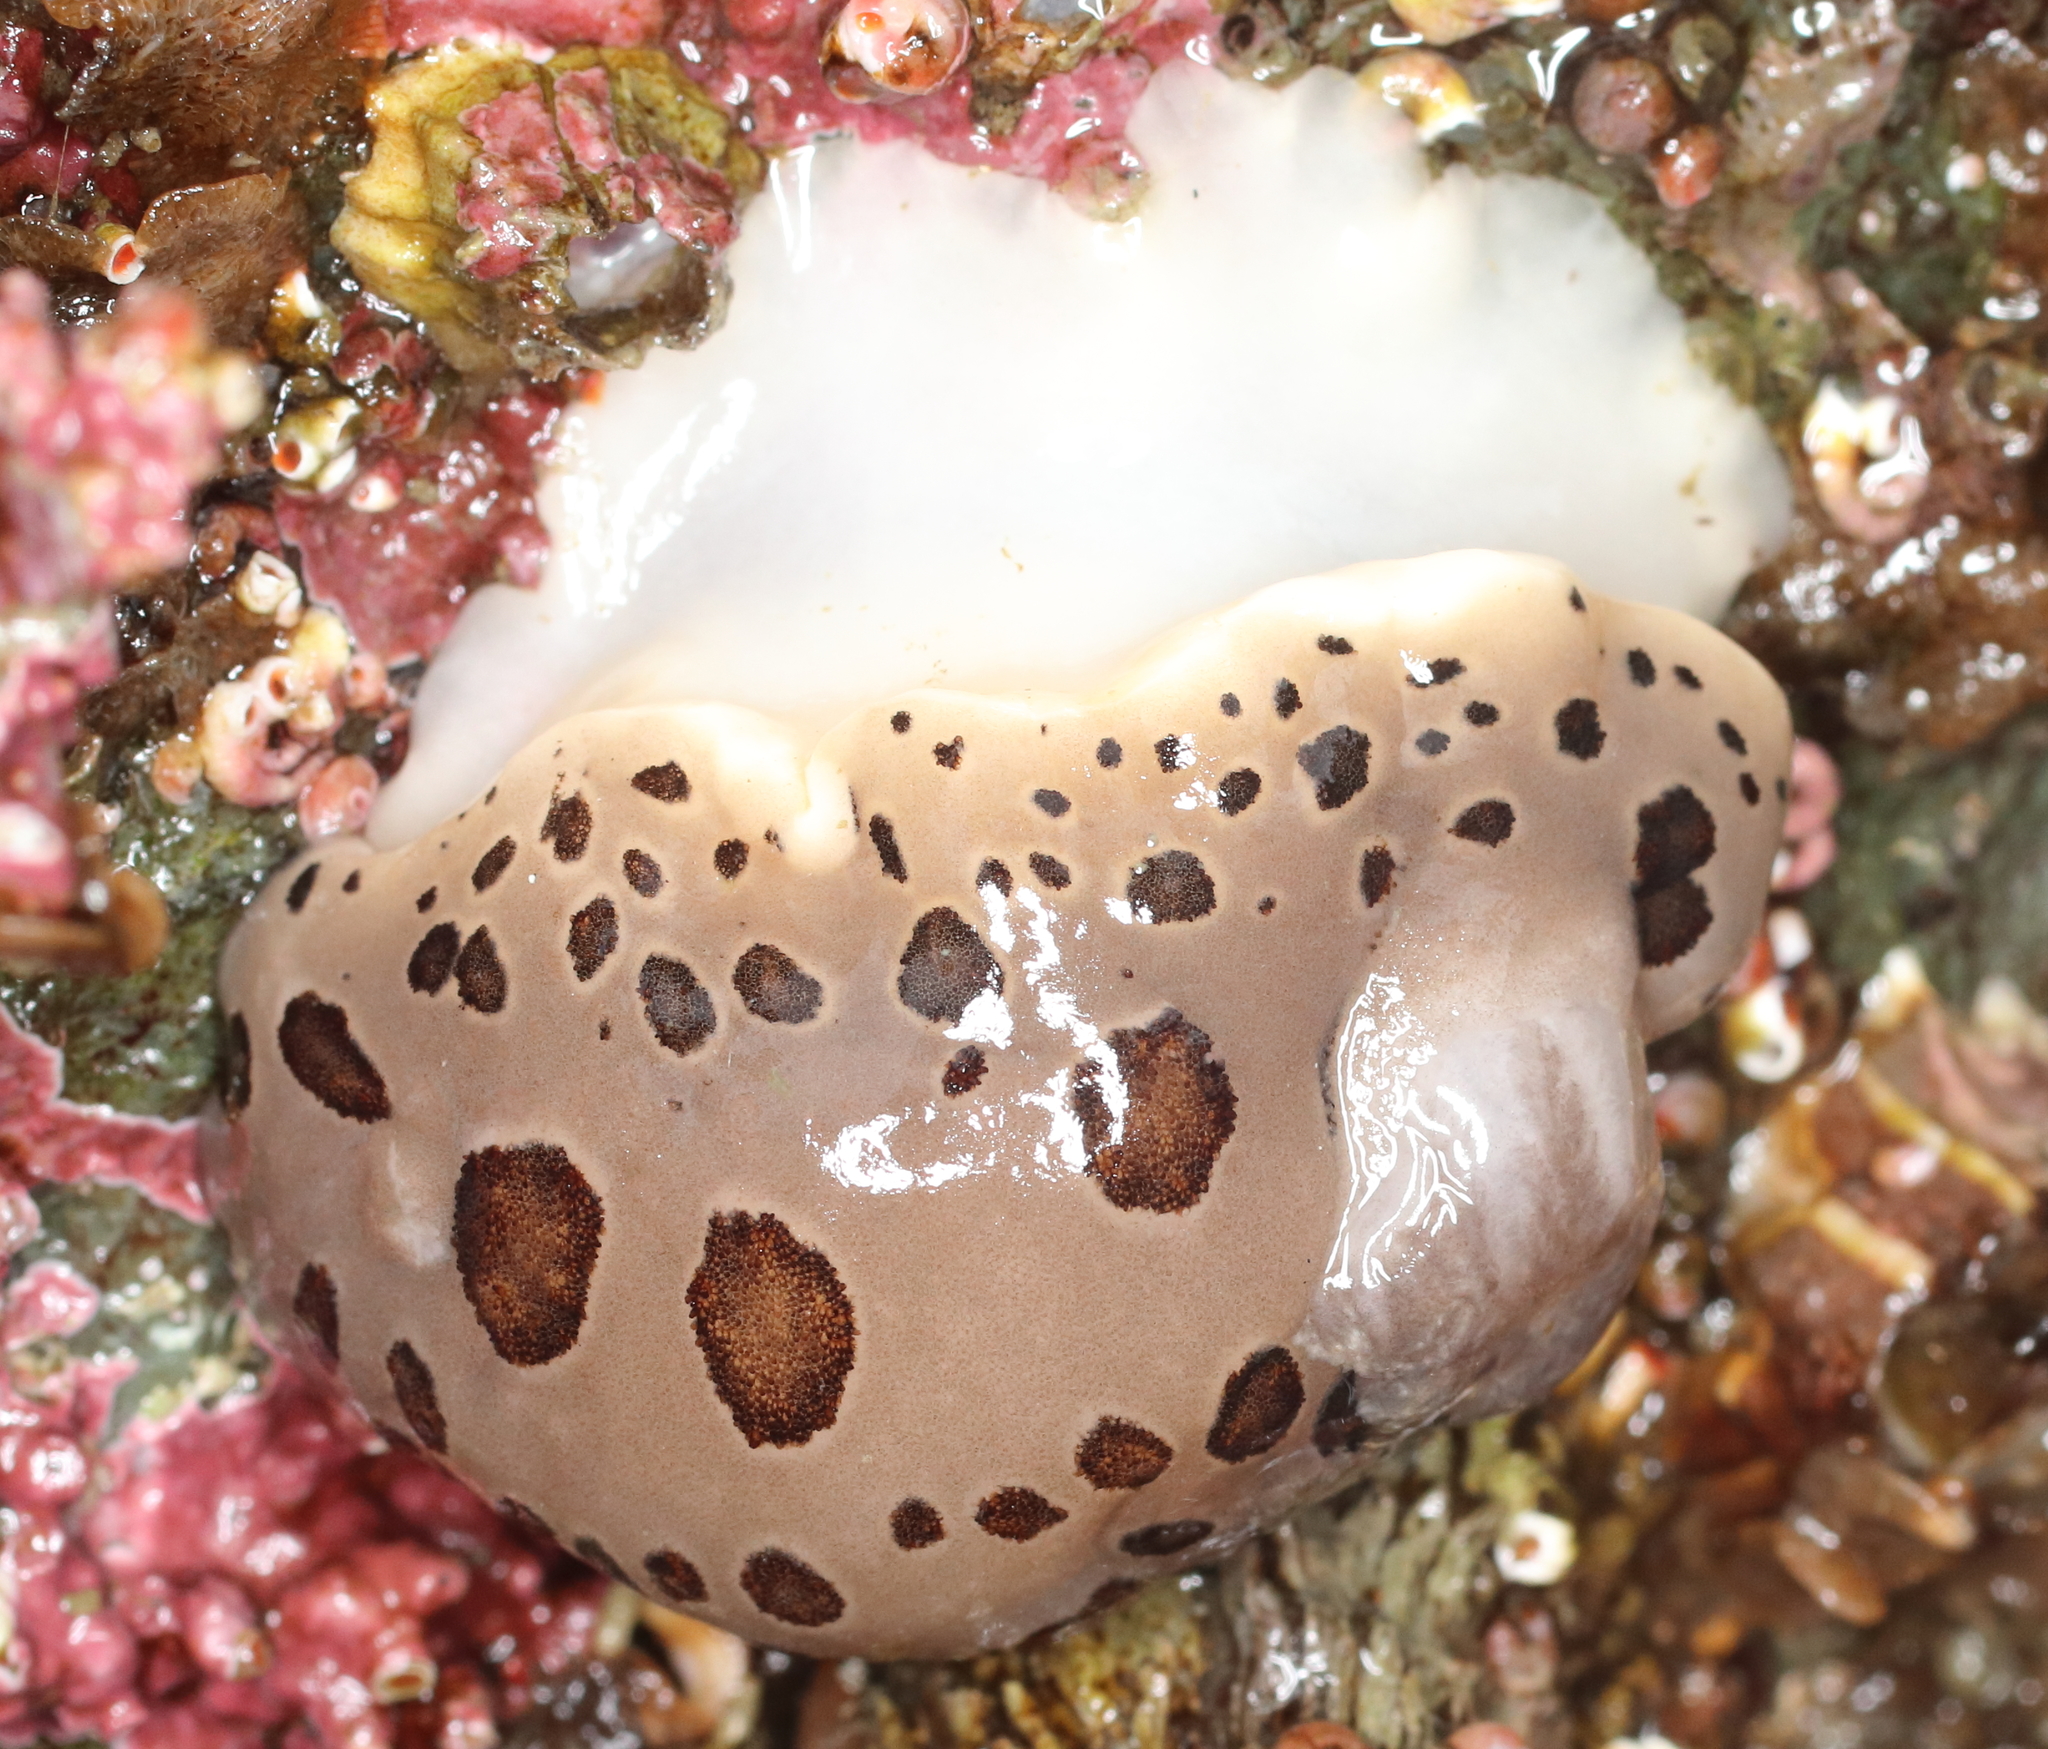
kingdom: Animalia
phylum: Mollusca
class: Gastropoda
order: Nudibranchia
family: Discodorididae
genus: Diaulula
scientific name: Diaulula odonoghuei
